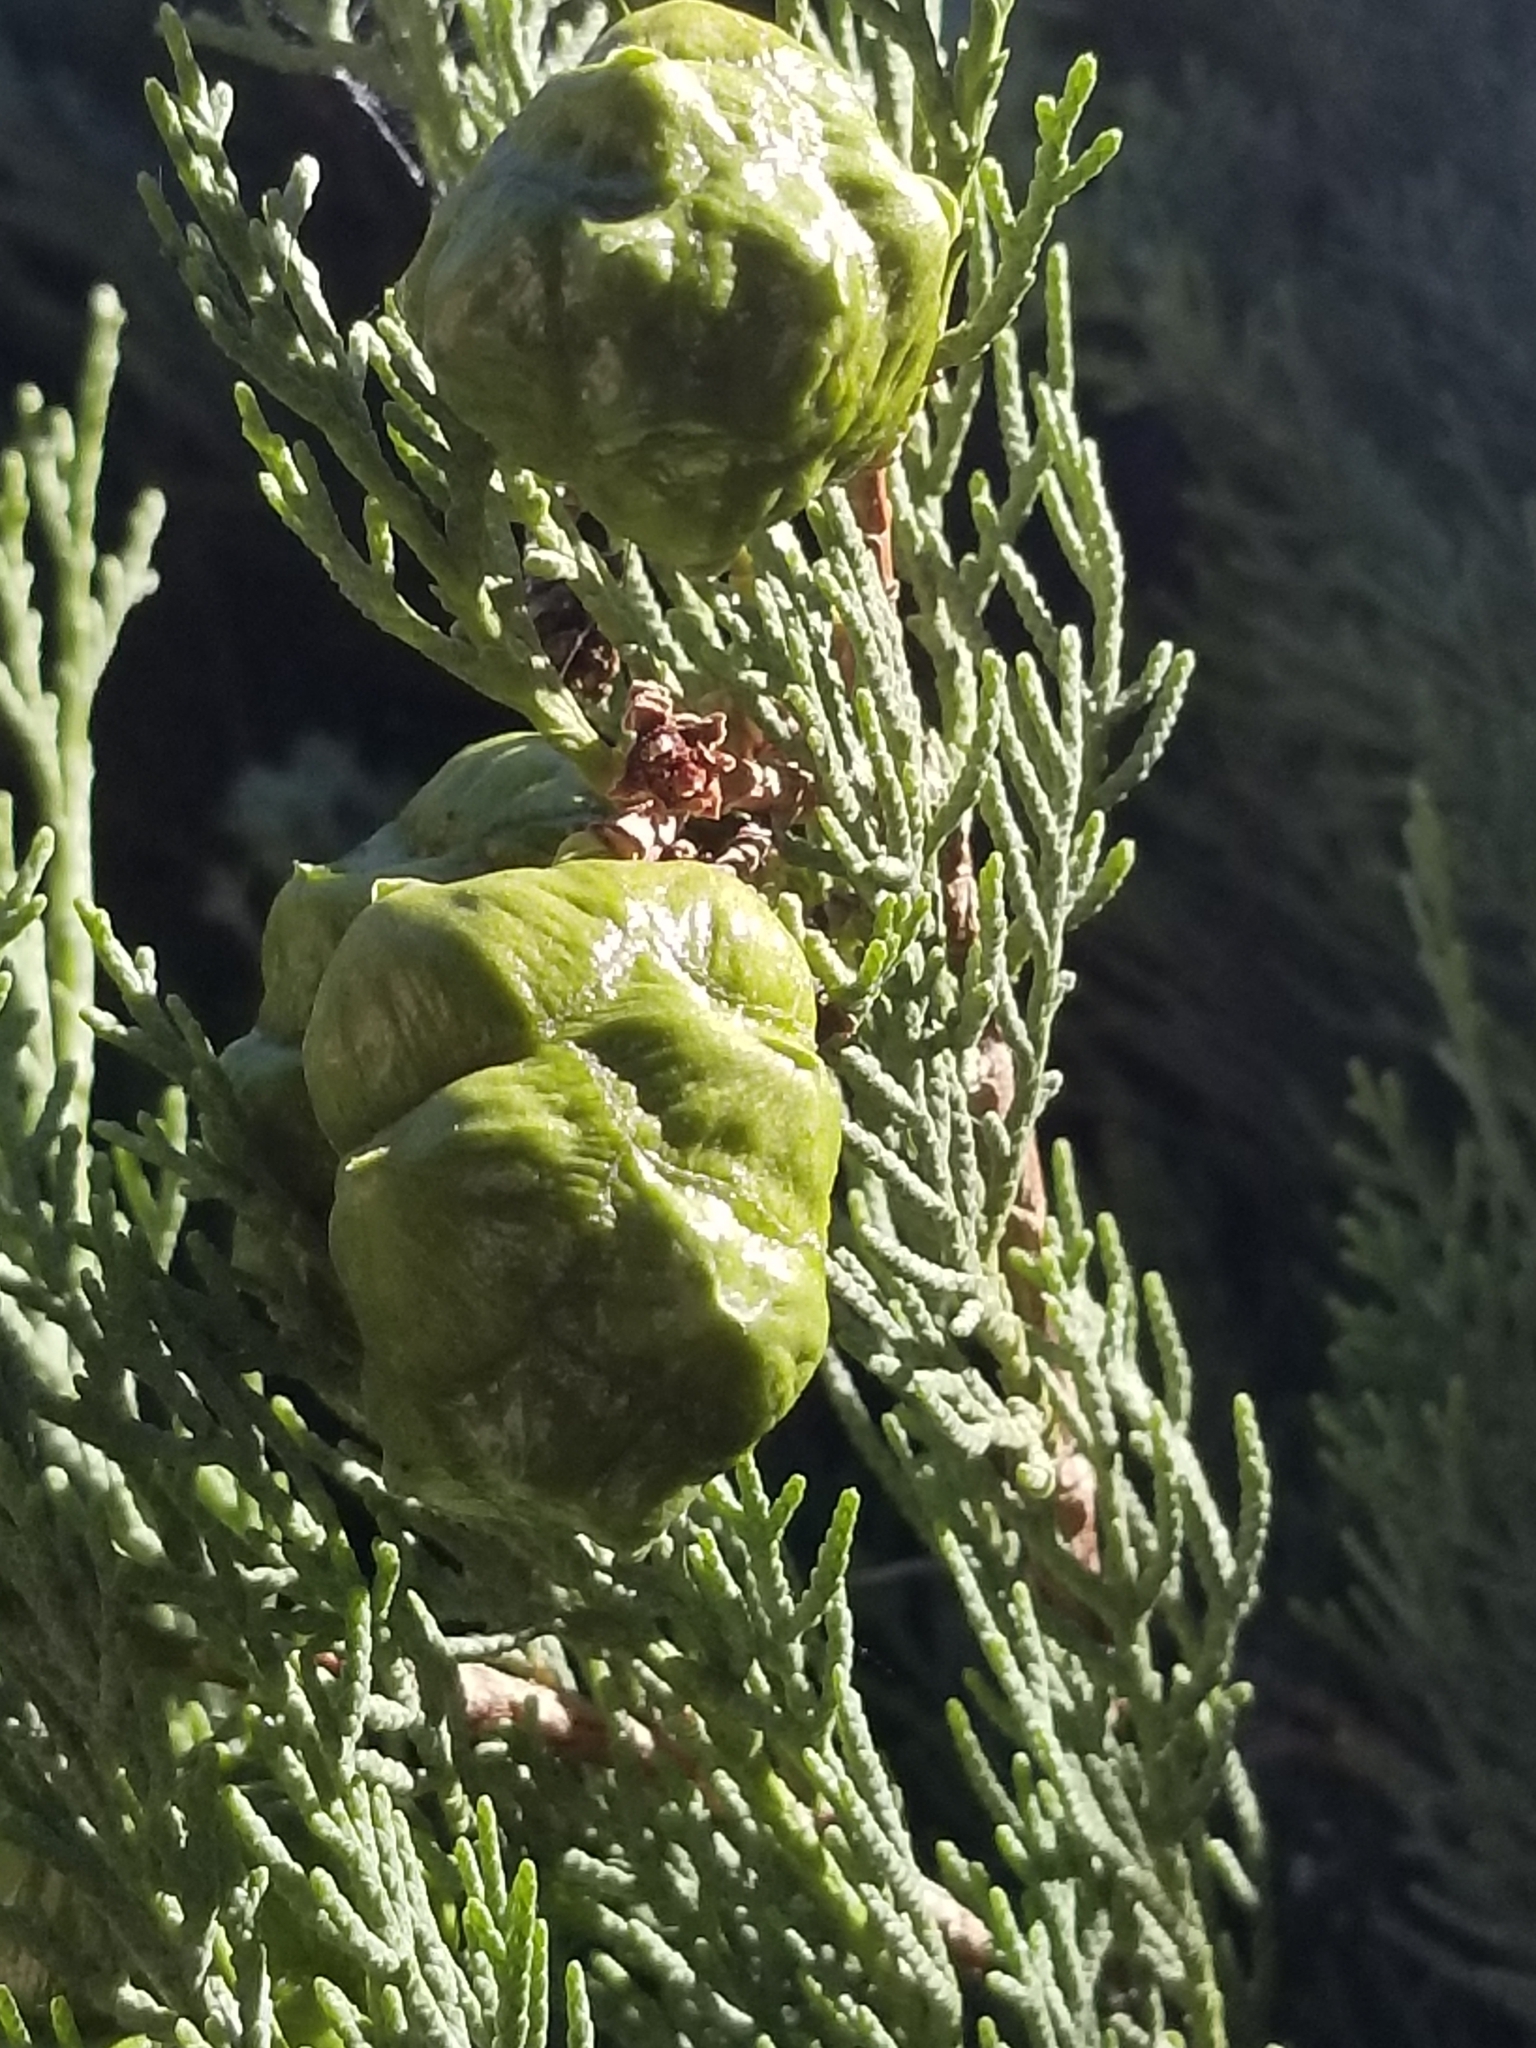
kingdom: Plantae
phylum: Tracheophyta
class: Pinopsida
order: Pinales
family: Cupressaceae
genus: Cupressus
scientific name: Cupressus sempervirens
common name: Italian cypress
